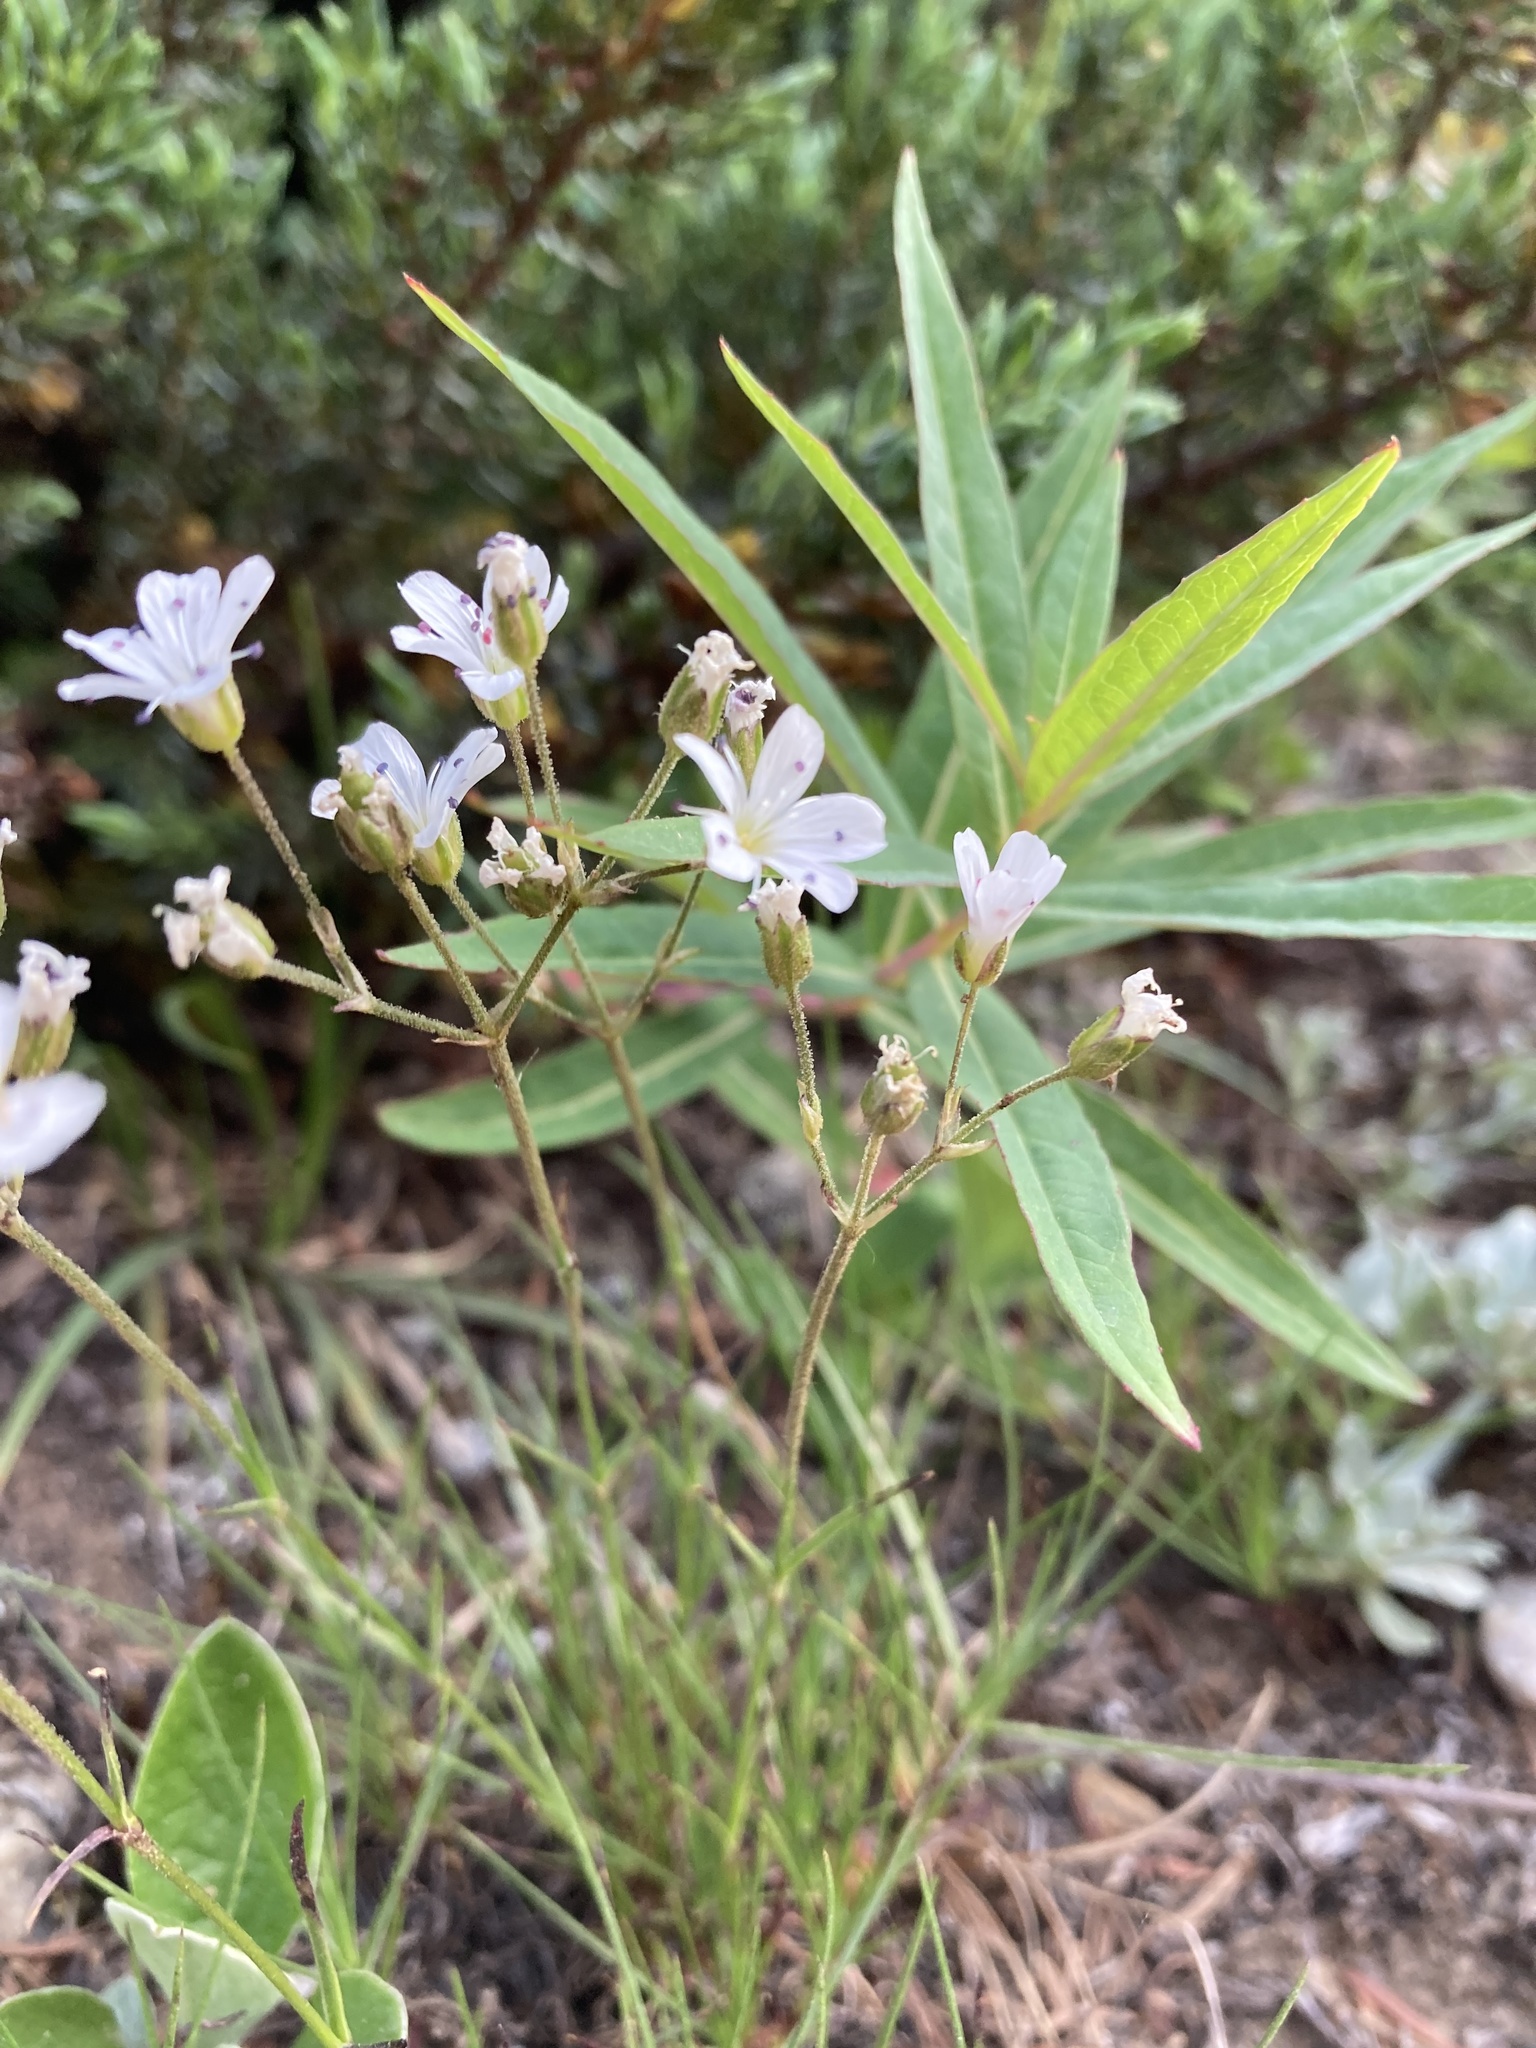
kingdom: Plantae
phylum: Tracheophyta
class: Magnoliopsida
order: Caryophyllales
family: Caryophyllaceae
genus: Eremogone
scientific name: Eremogone capillaris
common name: Slender mountain sandwort
